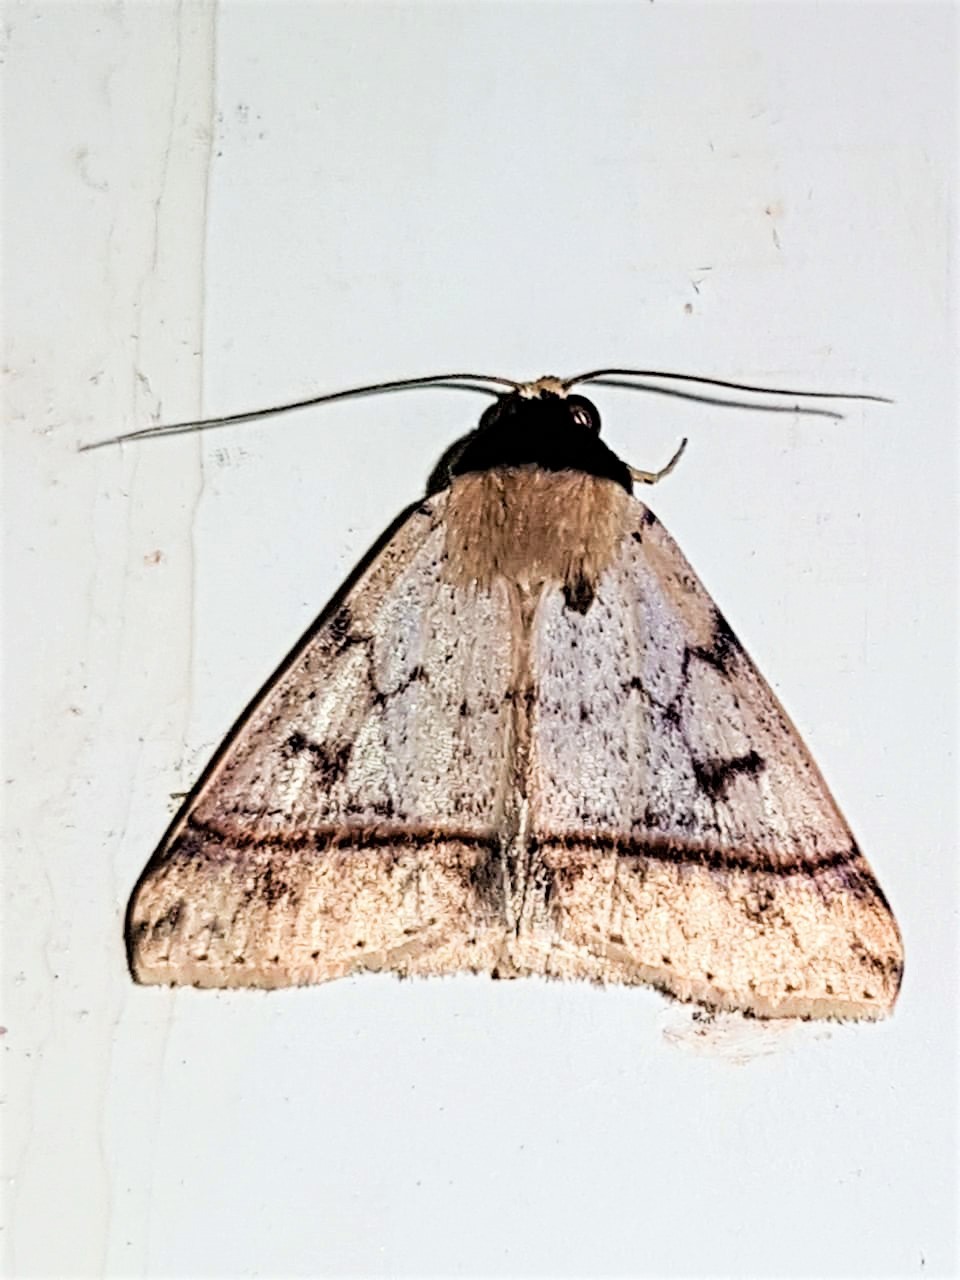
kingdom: Animalia
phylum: Arthropoda
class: Insecta
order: Lepidoptera
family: Erebidae
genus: Deinopa
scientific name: Deinopa delinquens
